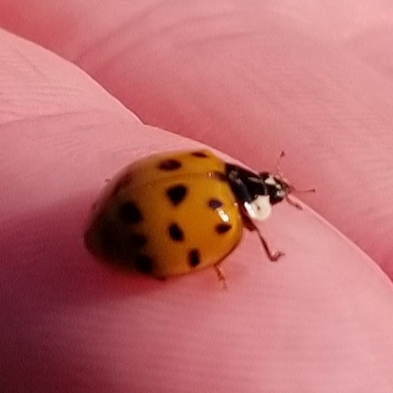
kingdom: Animalia
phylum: Arthropoda
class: Insecta
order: Coleoptera
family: Coccinellidae
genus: Harmonia
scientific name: Harmonia axyridis
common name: Harlequin ladybird
